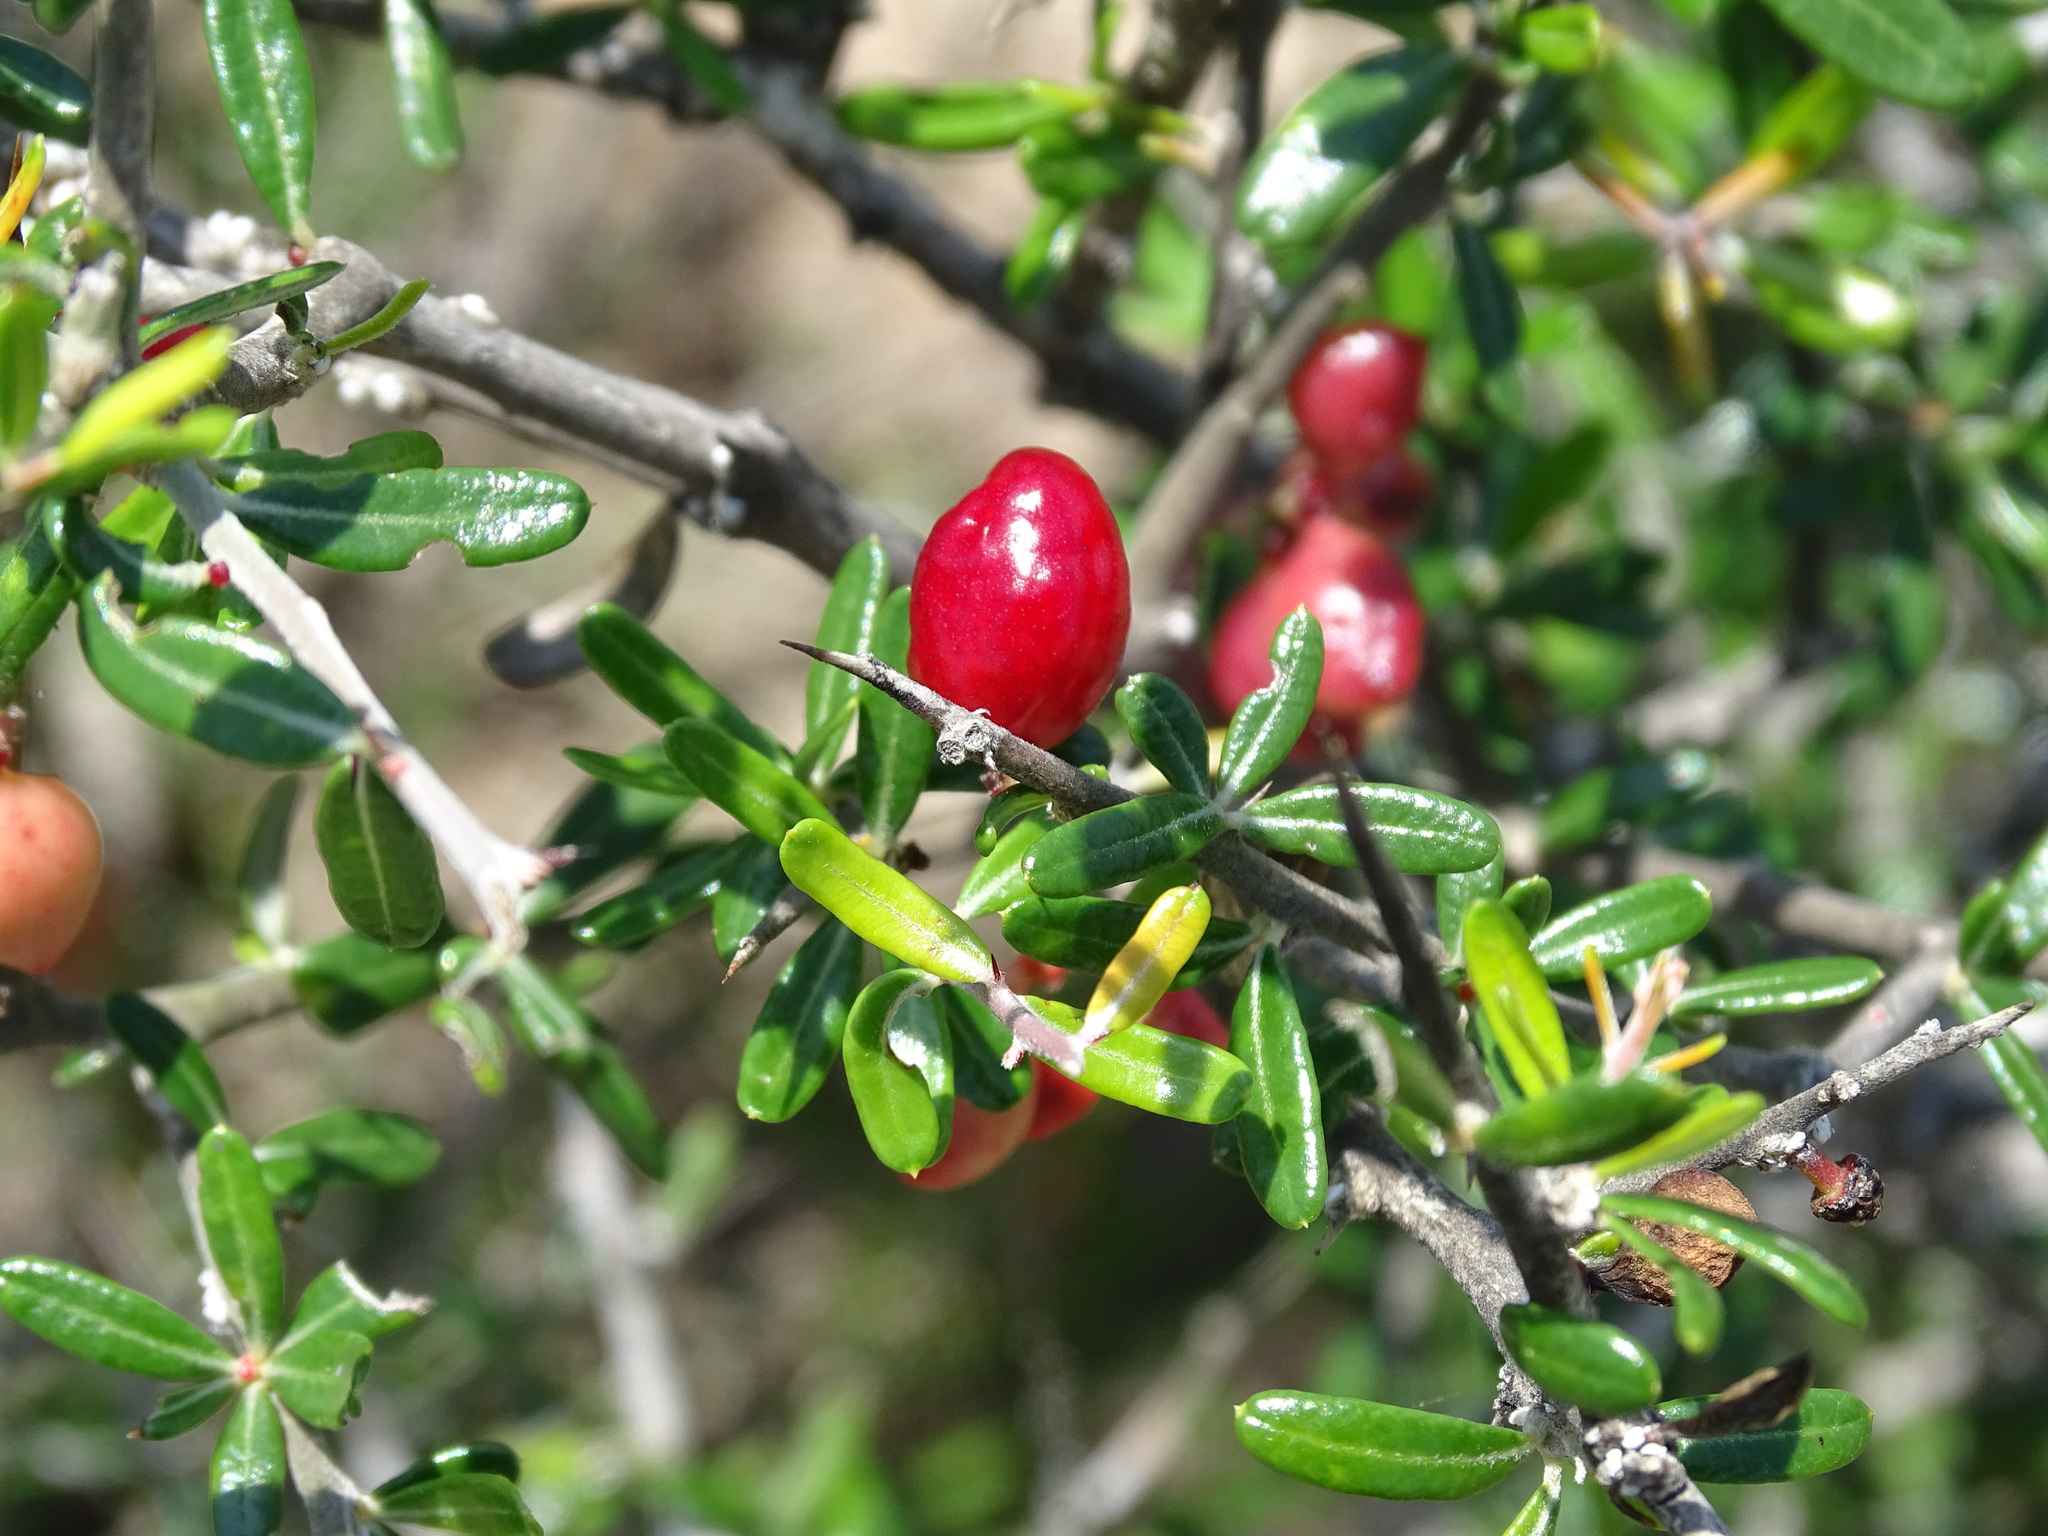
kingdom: Plantae
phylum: Tracheophyta
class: Magnoliopsida
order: Sapindales
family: Simaroubaceae
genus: Castela
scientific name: Castela tortuosa
